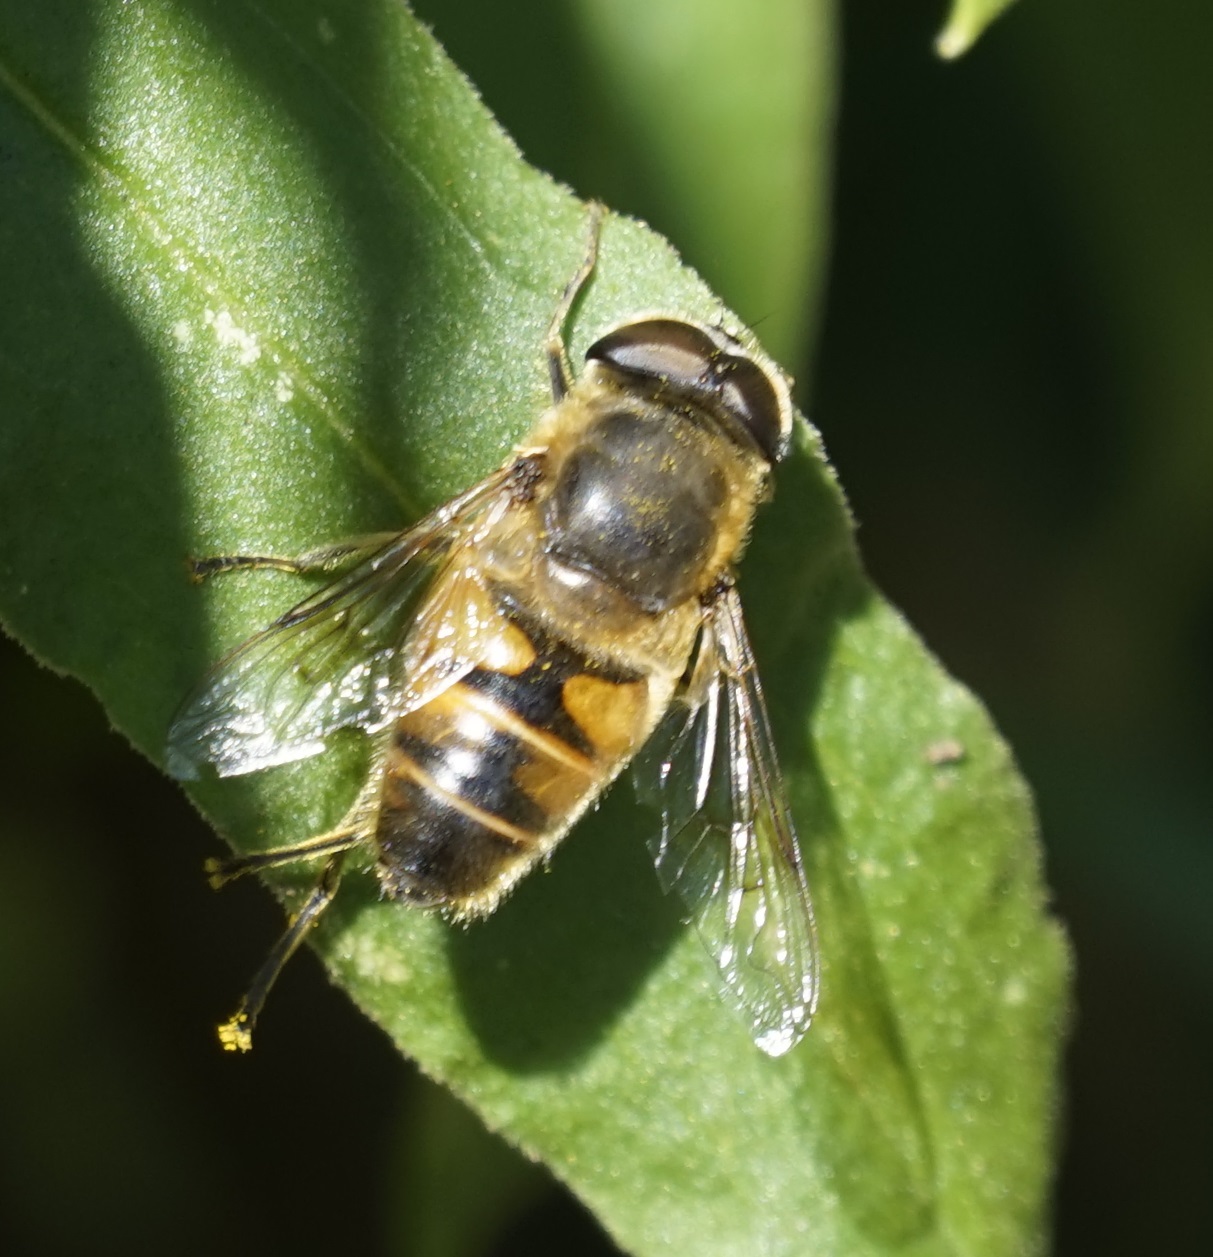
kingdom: Animalia
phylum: Arthropoda
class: Insecta
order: Diptera
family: Syrphidae
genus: Eristalis
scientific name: Eristalis tenax
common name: Drone fly
